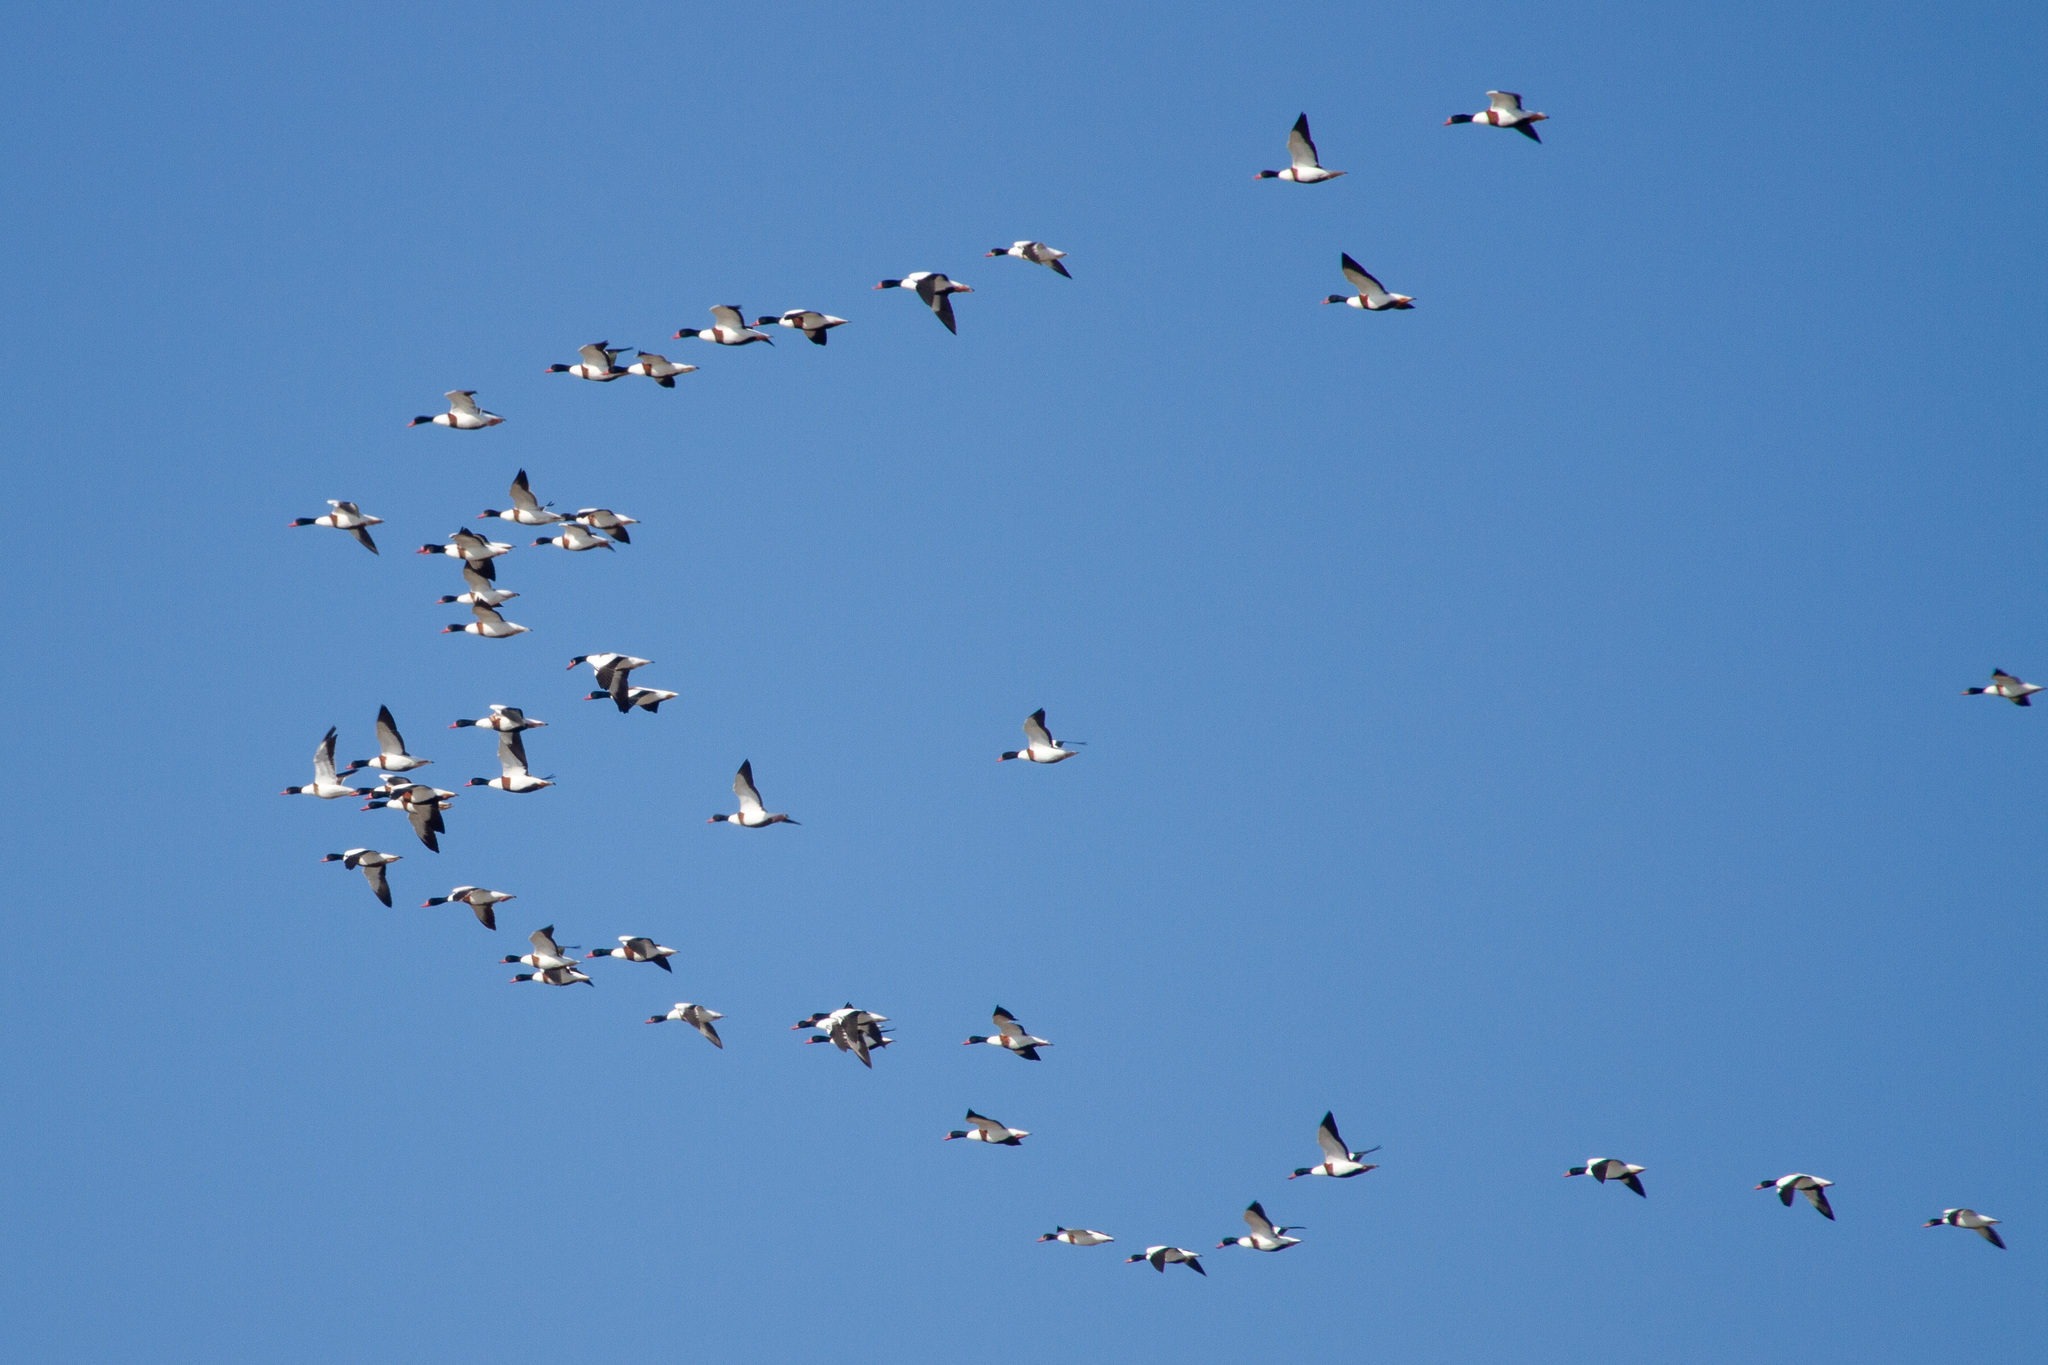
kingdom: Animalia
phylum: Chordata
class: Aves
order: Anseriformes
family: Anatidae
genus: Tadorna
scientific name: Tadorna tadorna
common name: Common shelduck
